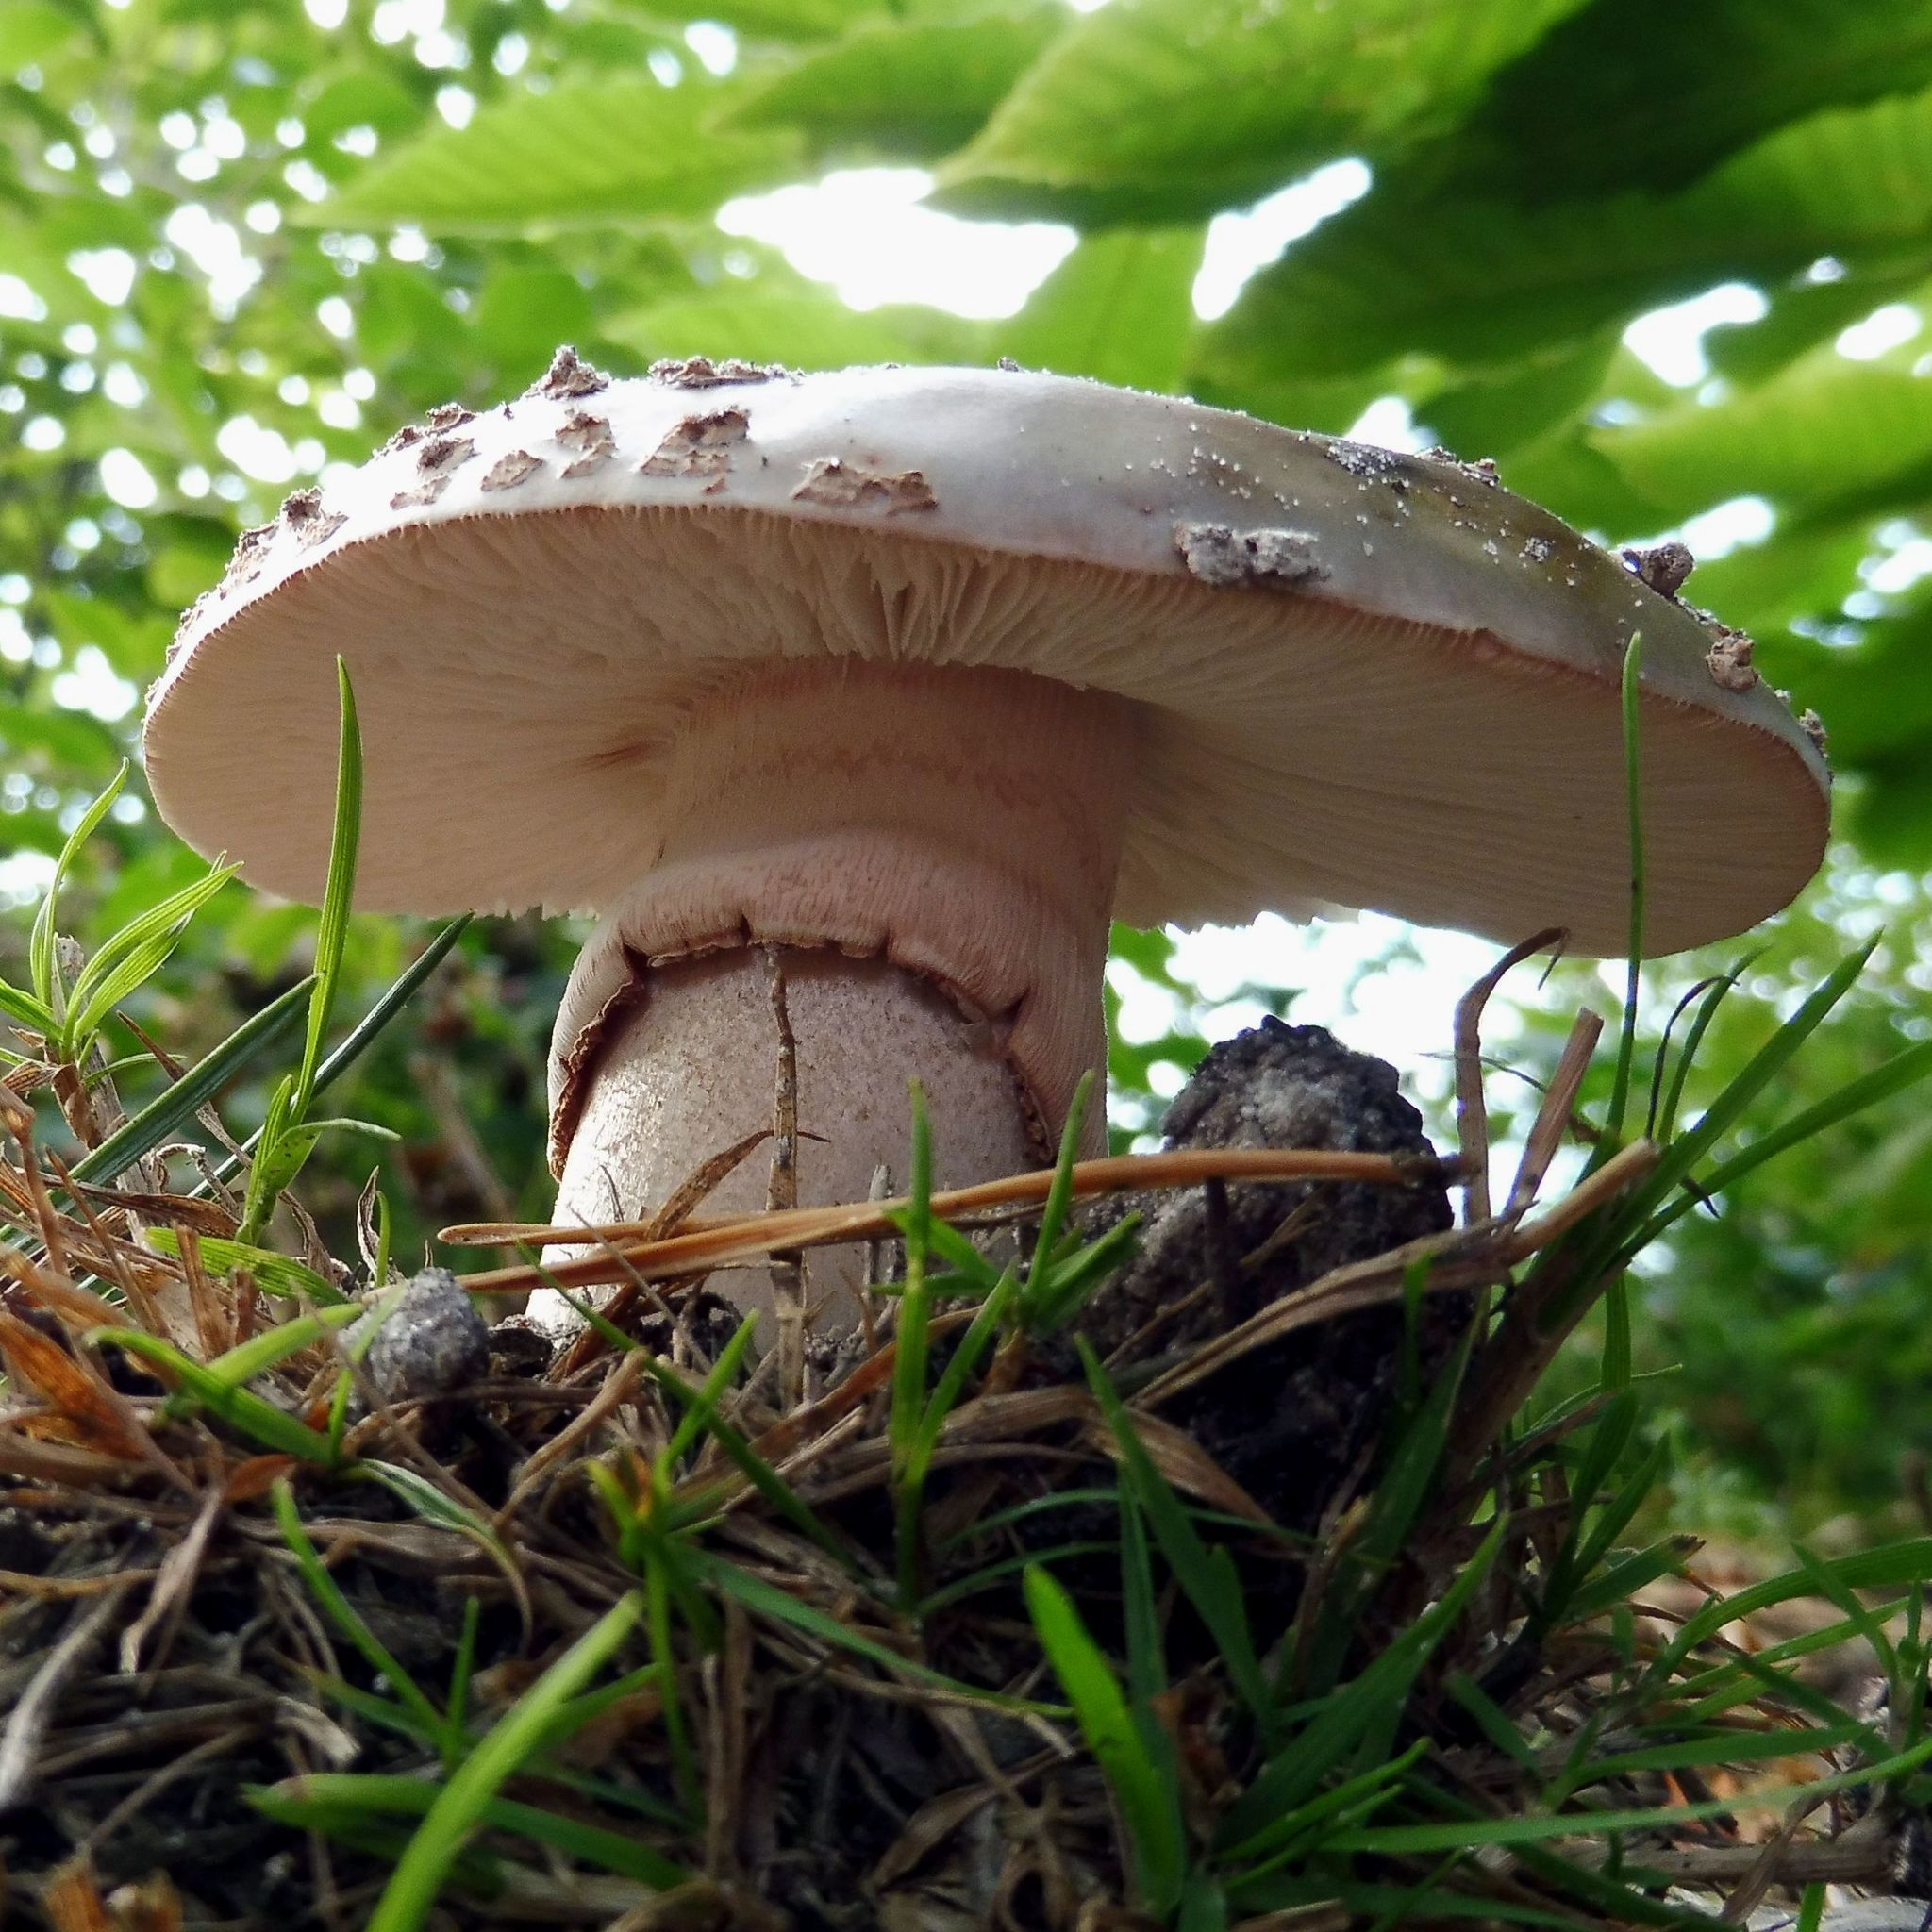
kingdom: Fungi
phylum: Basidiomycota
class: Agaricomycetes
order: Agaricales
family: Amanitaceae
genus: Amanita
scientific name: Amanita rubescens
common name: Blusher
